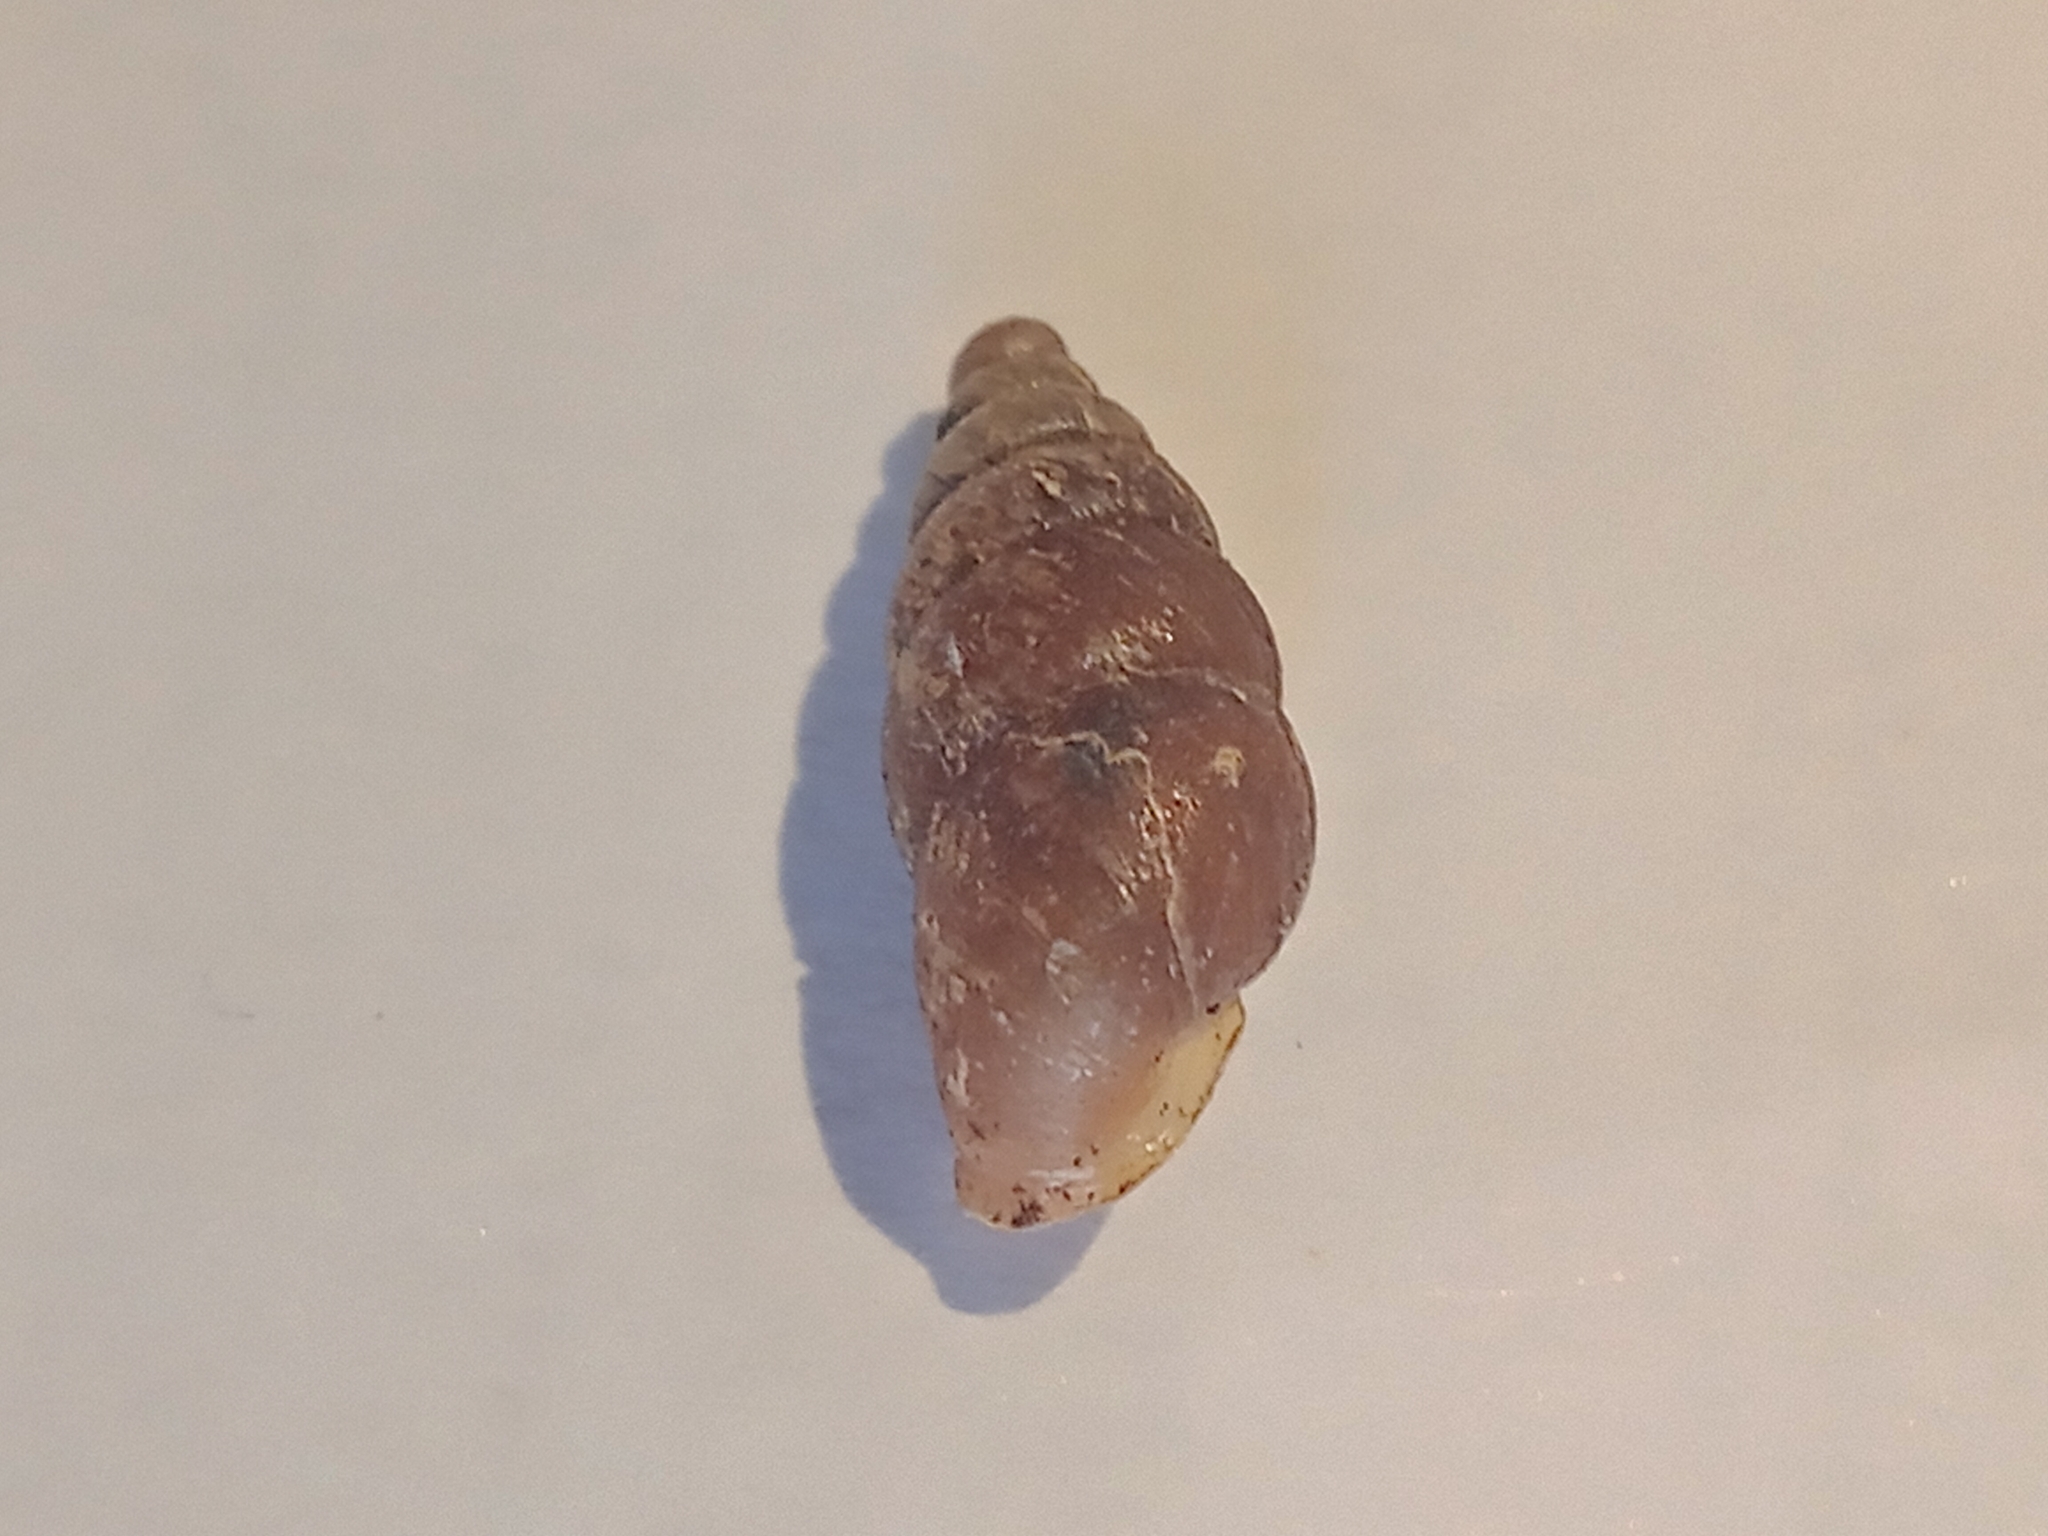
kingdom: Animalia
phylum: Mollusca
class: Gastropoda
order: Stylommatophora
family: Enidae
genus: Merdigera
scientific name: Merdigera obscura
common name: Lesser bulin
